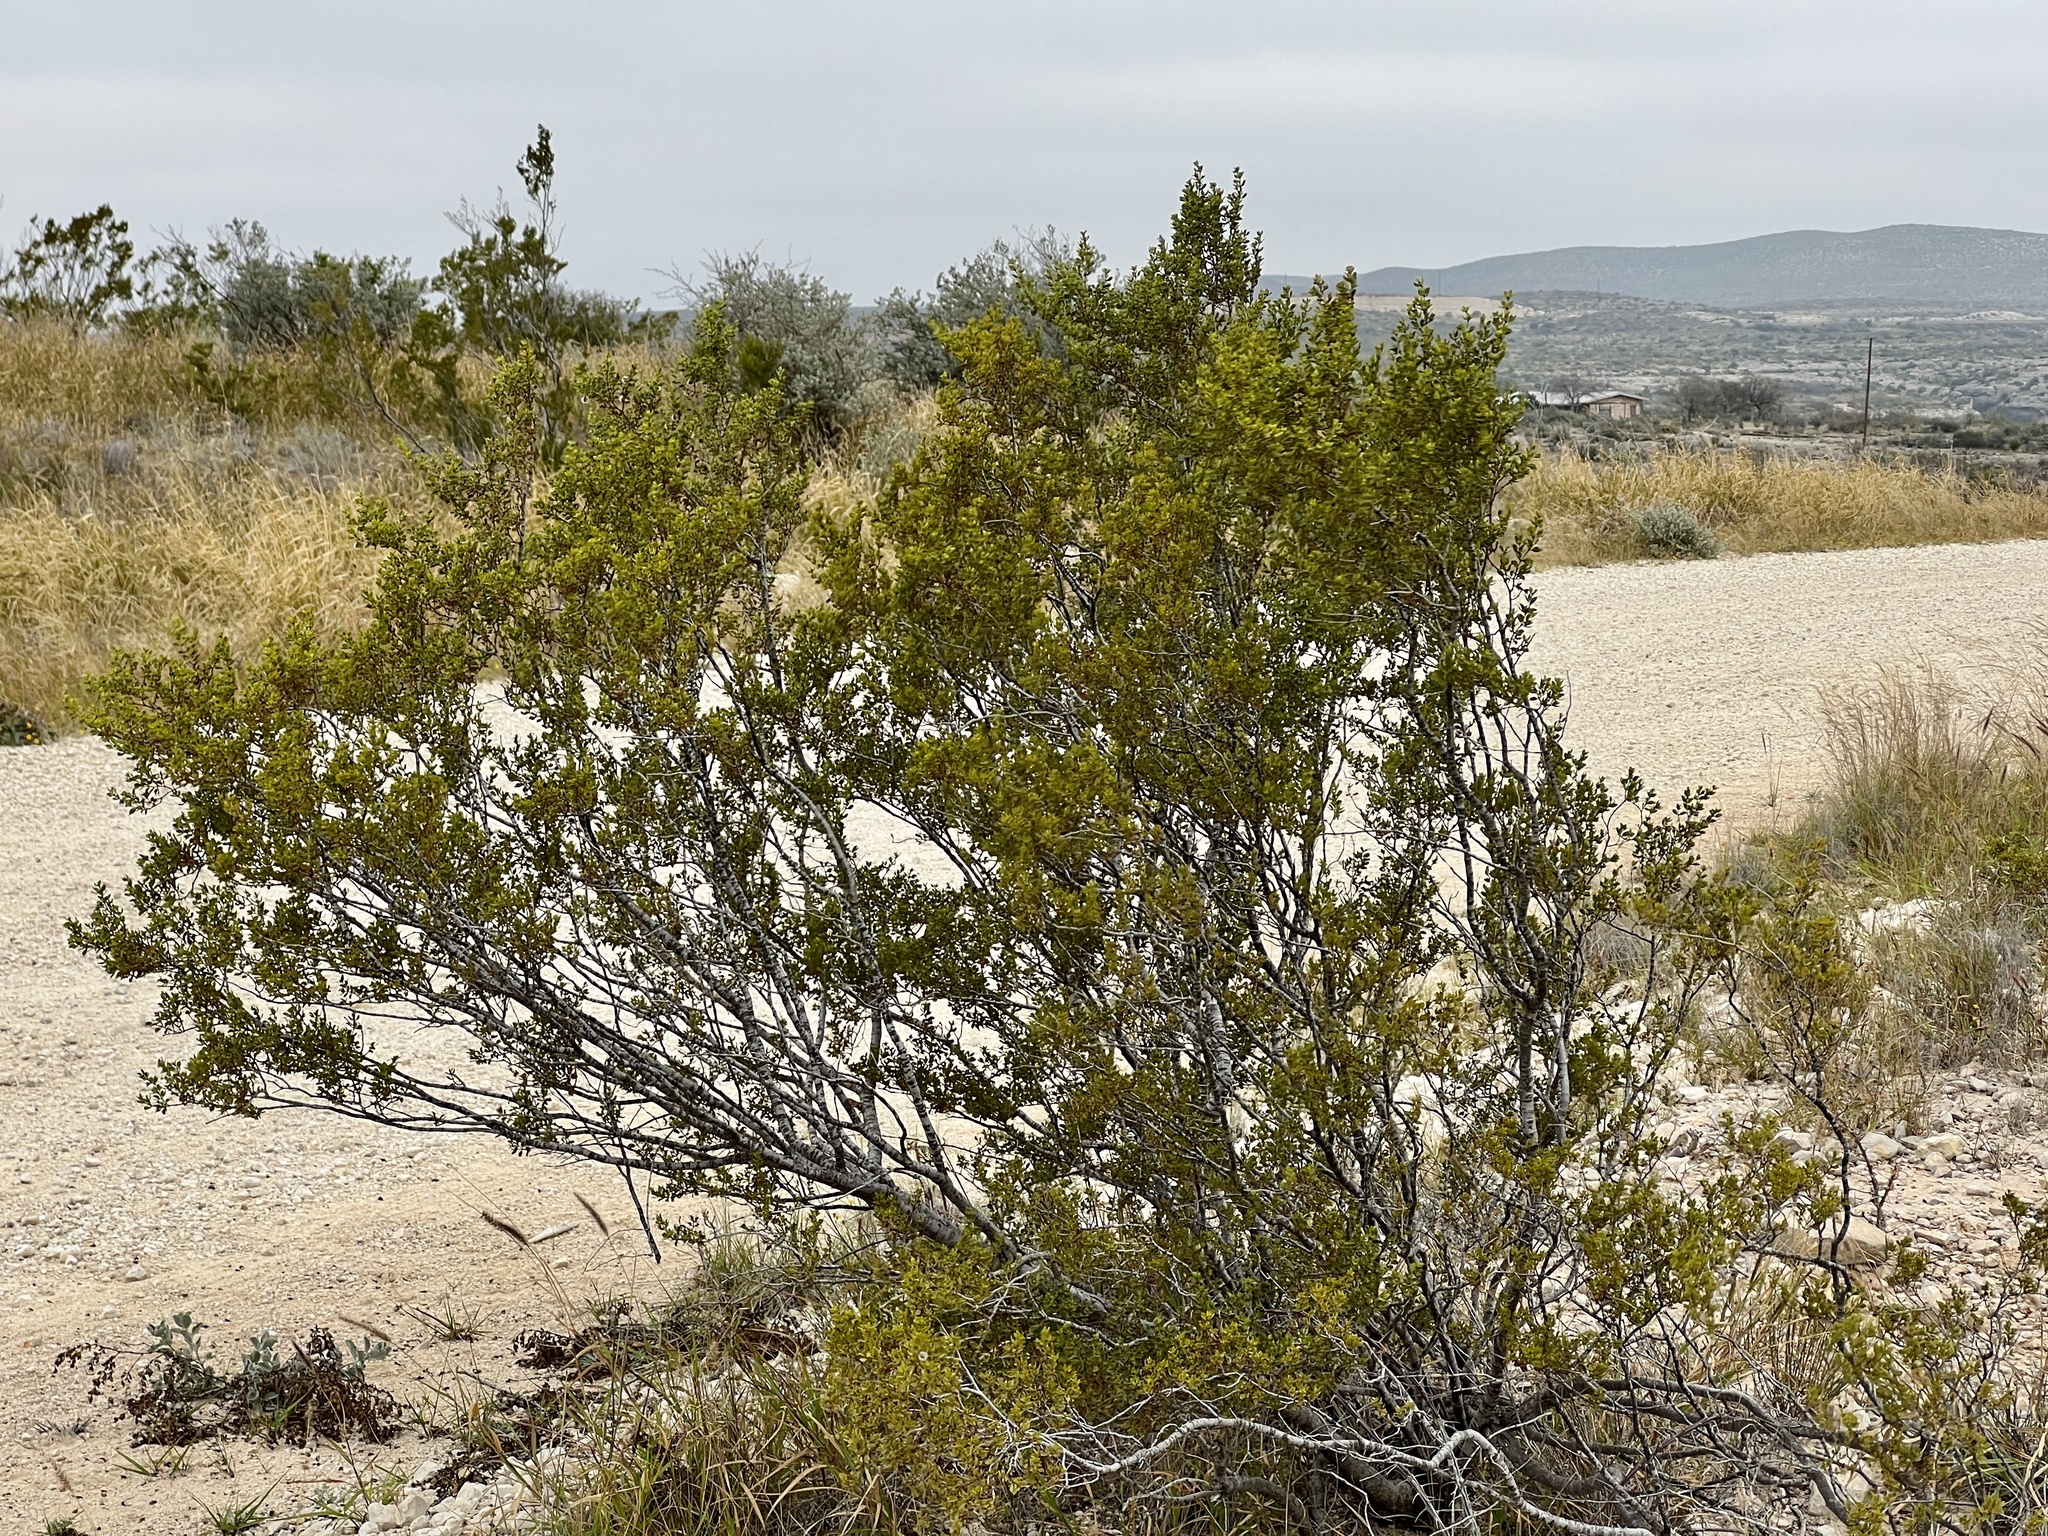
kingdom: Plantae
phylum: Tracheophyta
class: Magnoliopsida
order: Zygophyllales
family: Zygophyllaceae
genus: Larrea
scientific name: Larrea tridentata
